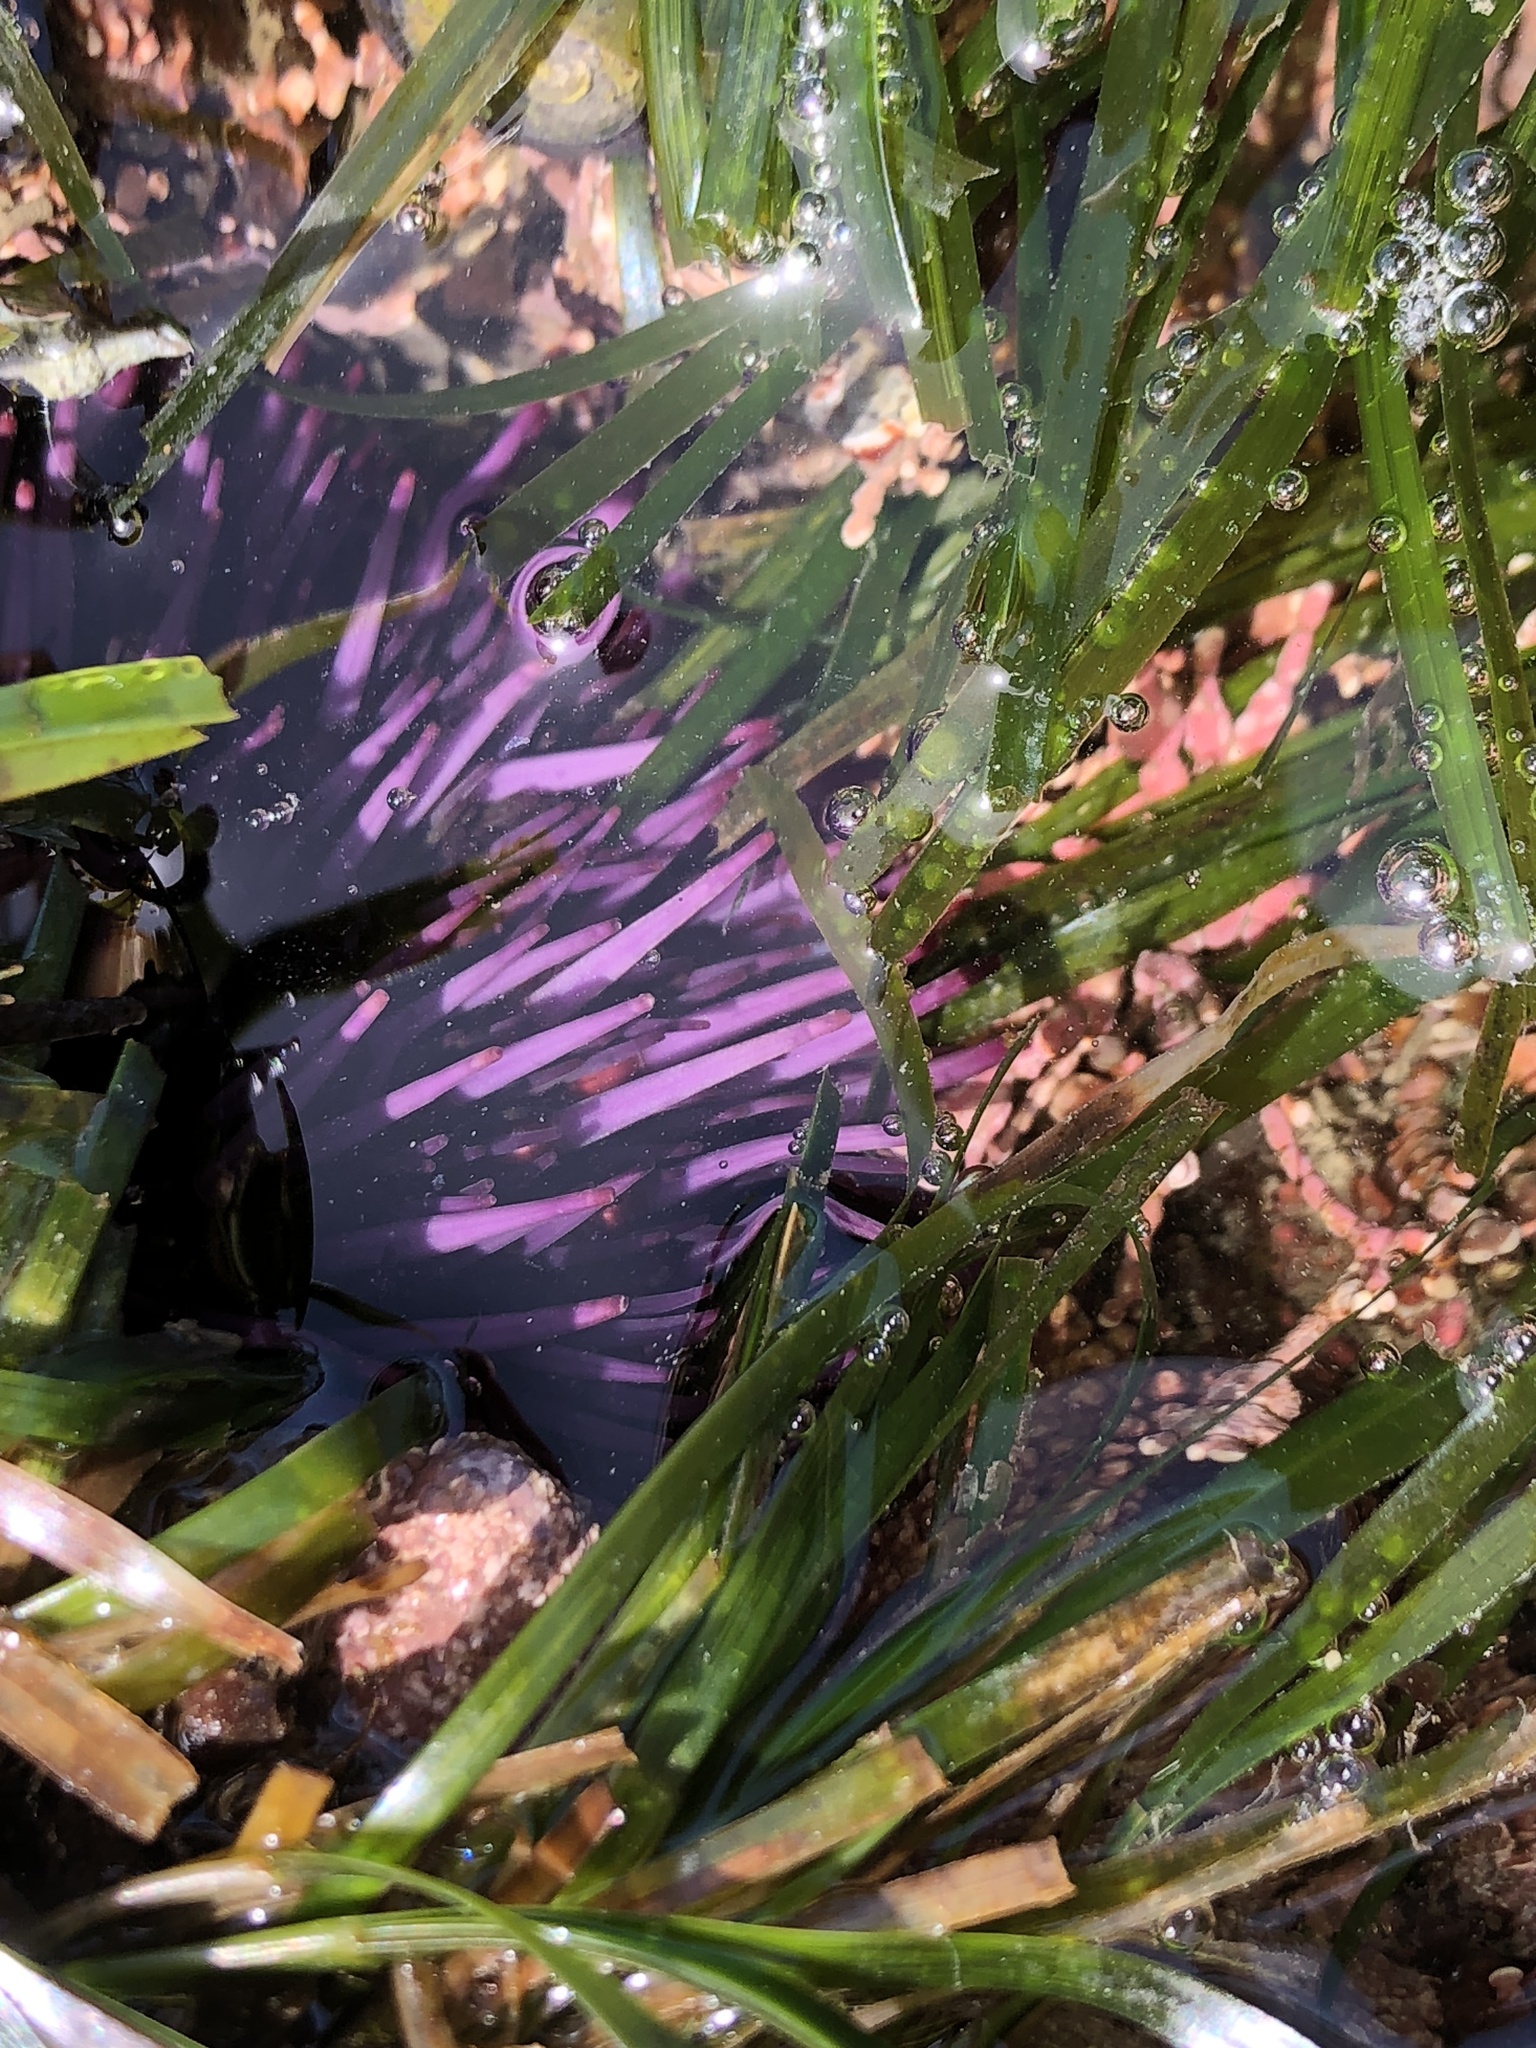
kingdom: Animalia
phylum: Echinodermata
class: Echinoidea
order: Camarodonta
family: Strongylocentrotidae
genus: Strongylocentrotus
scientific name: Strongylocentrotus purpuratus
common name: Purple sea urchin
